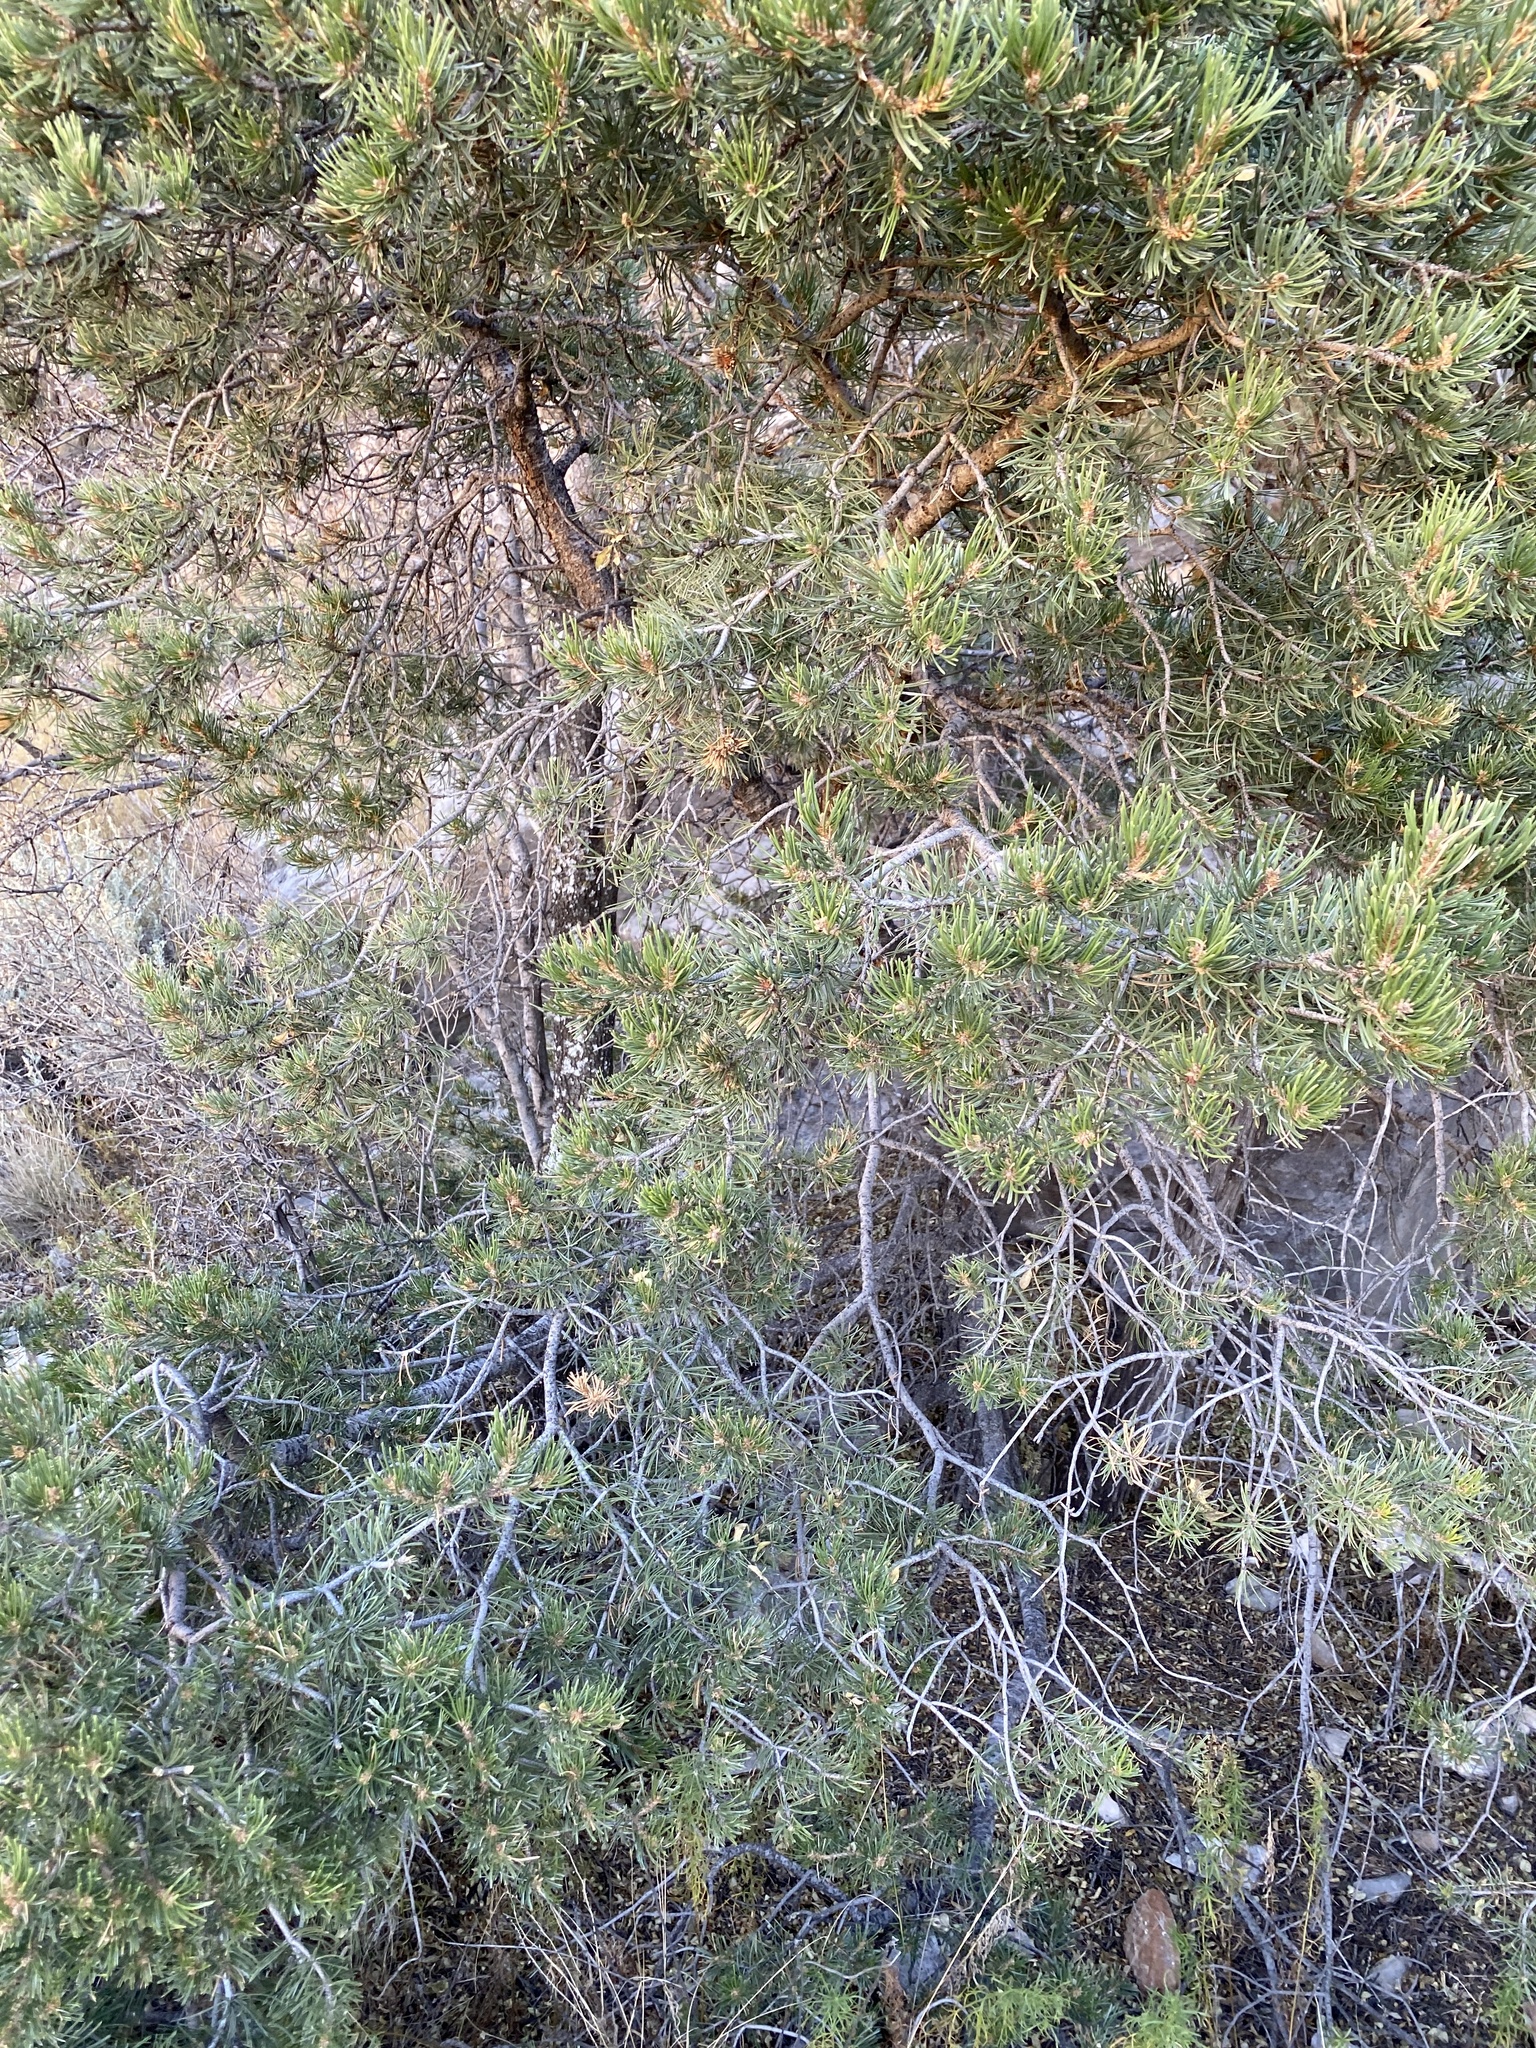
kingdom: Plantae
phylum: Tracheophyta
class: Pinopsida
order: Pinales
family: Pinaceae
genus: Pinus
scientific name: Pinus edulis
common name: Colorado pinyon
